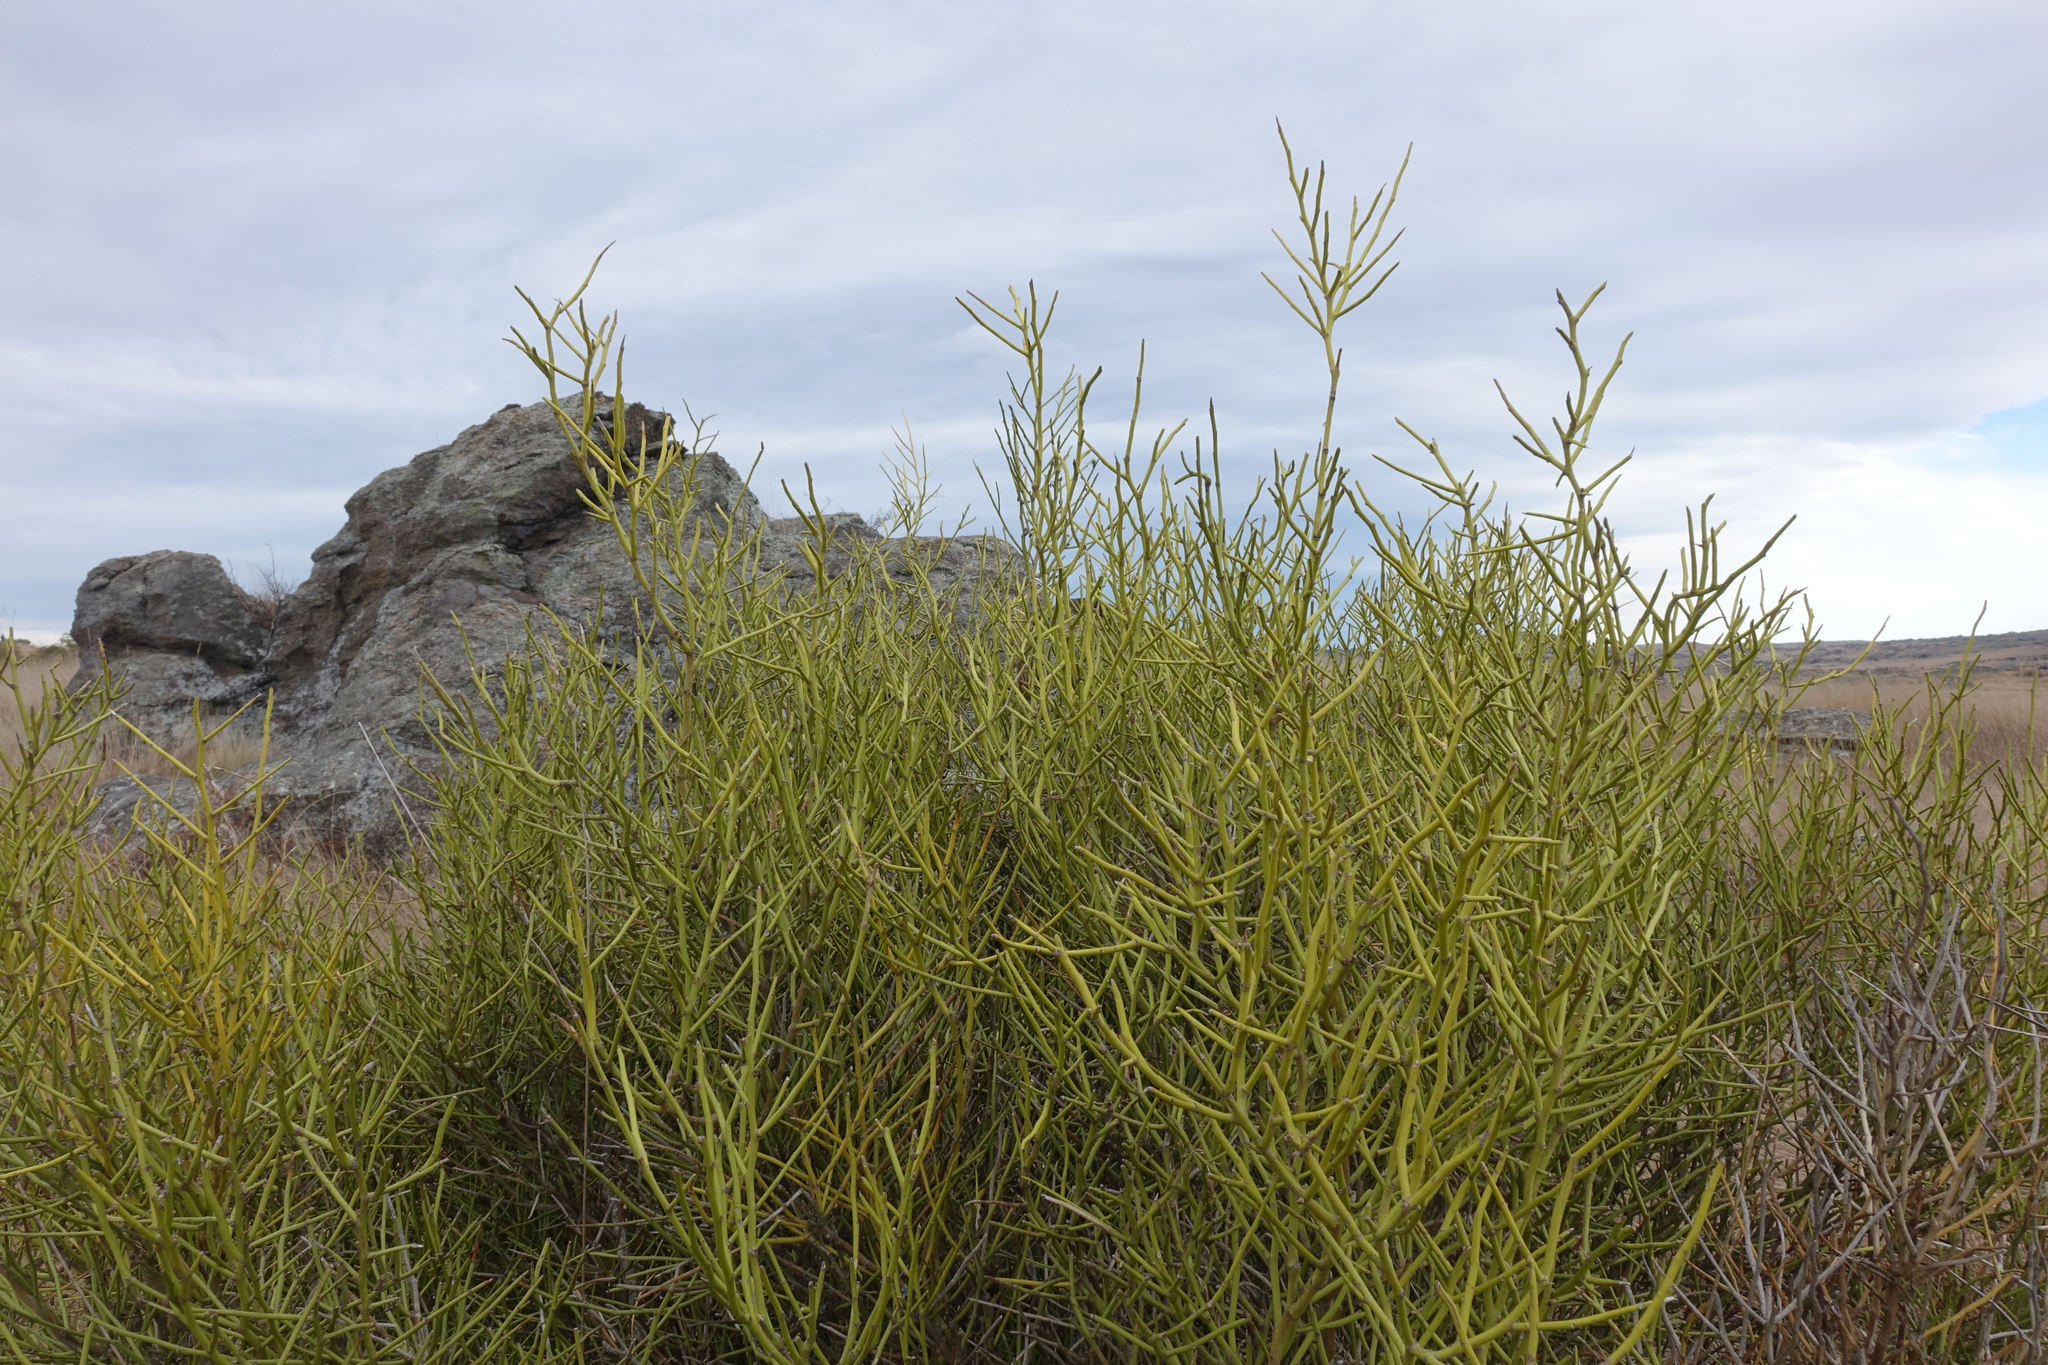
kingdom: Plantae
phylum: Tracheophyta
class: Magnoliopsida
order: Fabales
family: Fabaceae
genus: Carmichaelia
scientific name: Carmichaelia petriei
